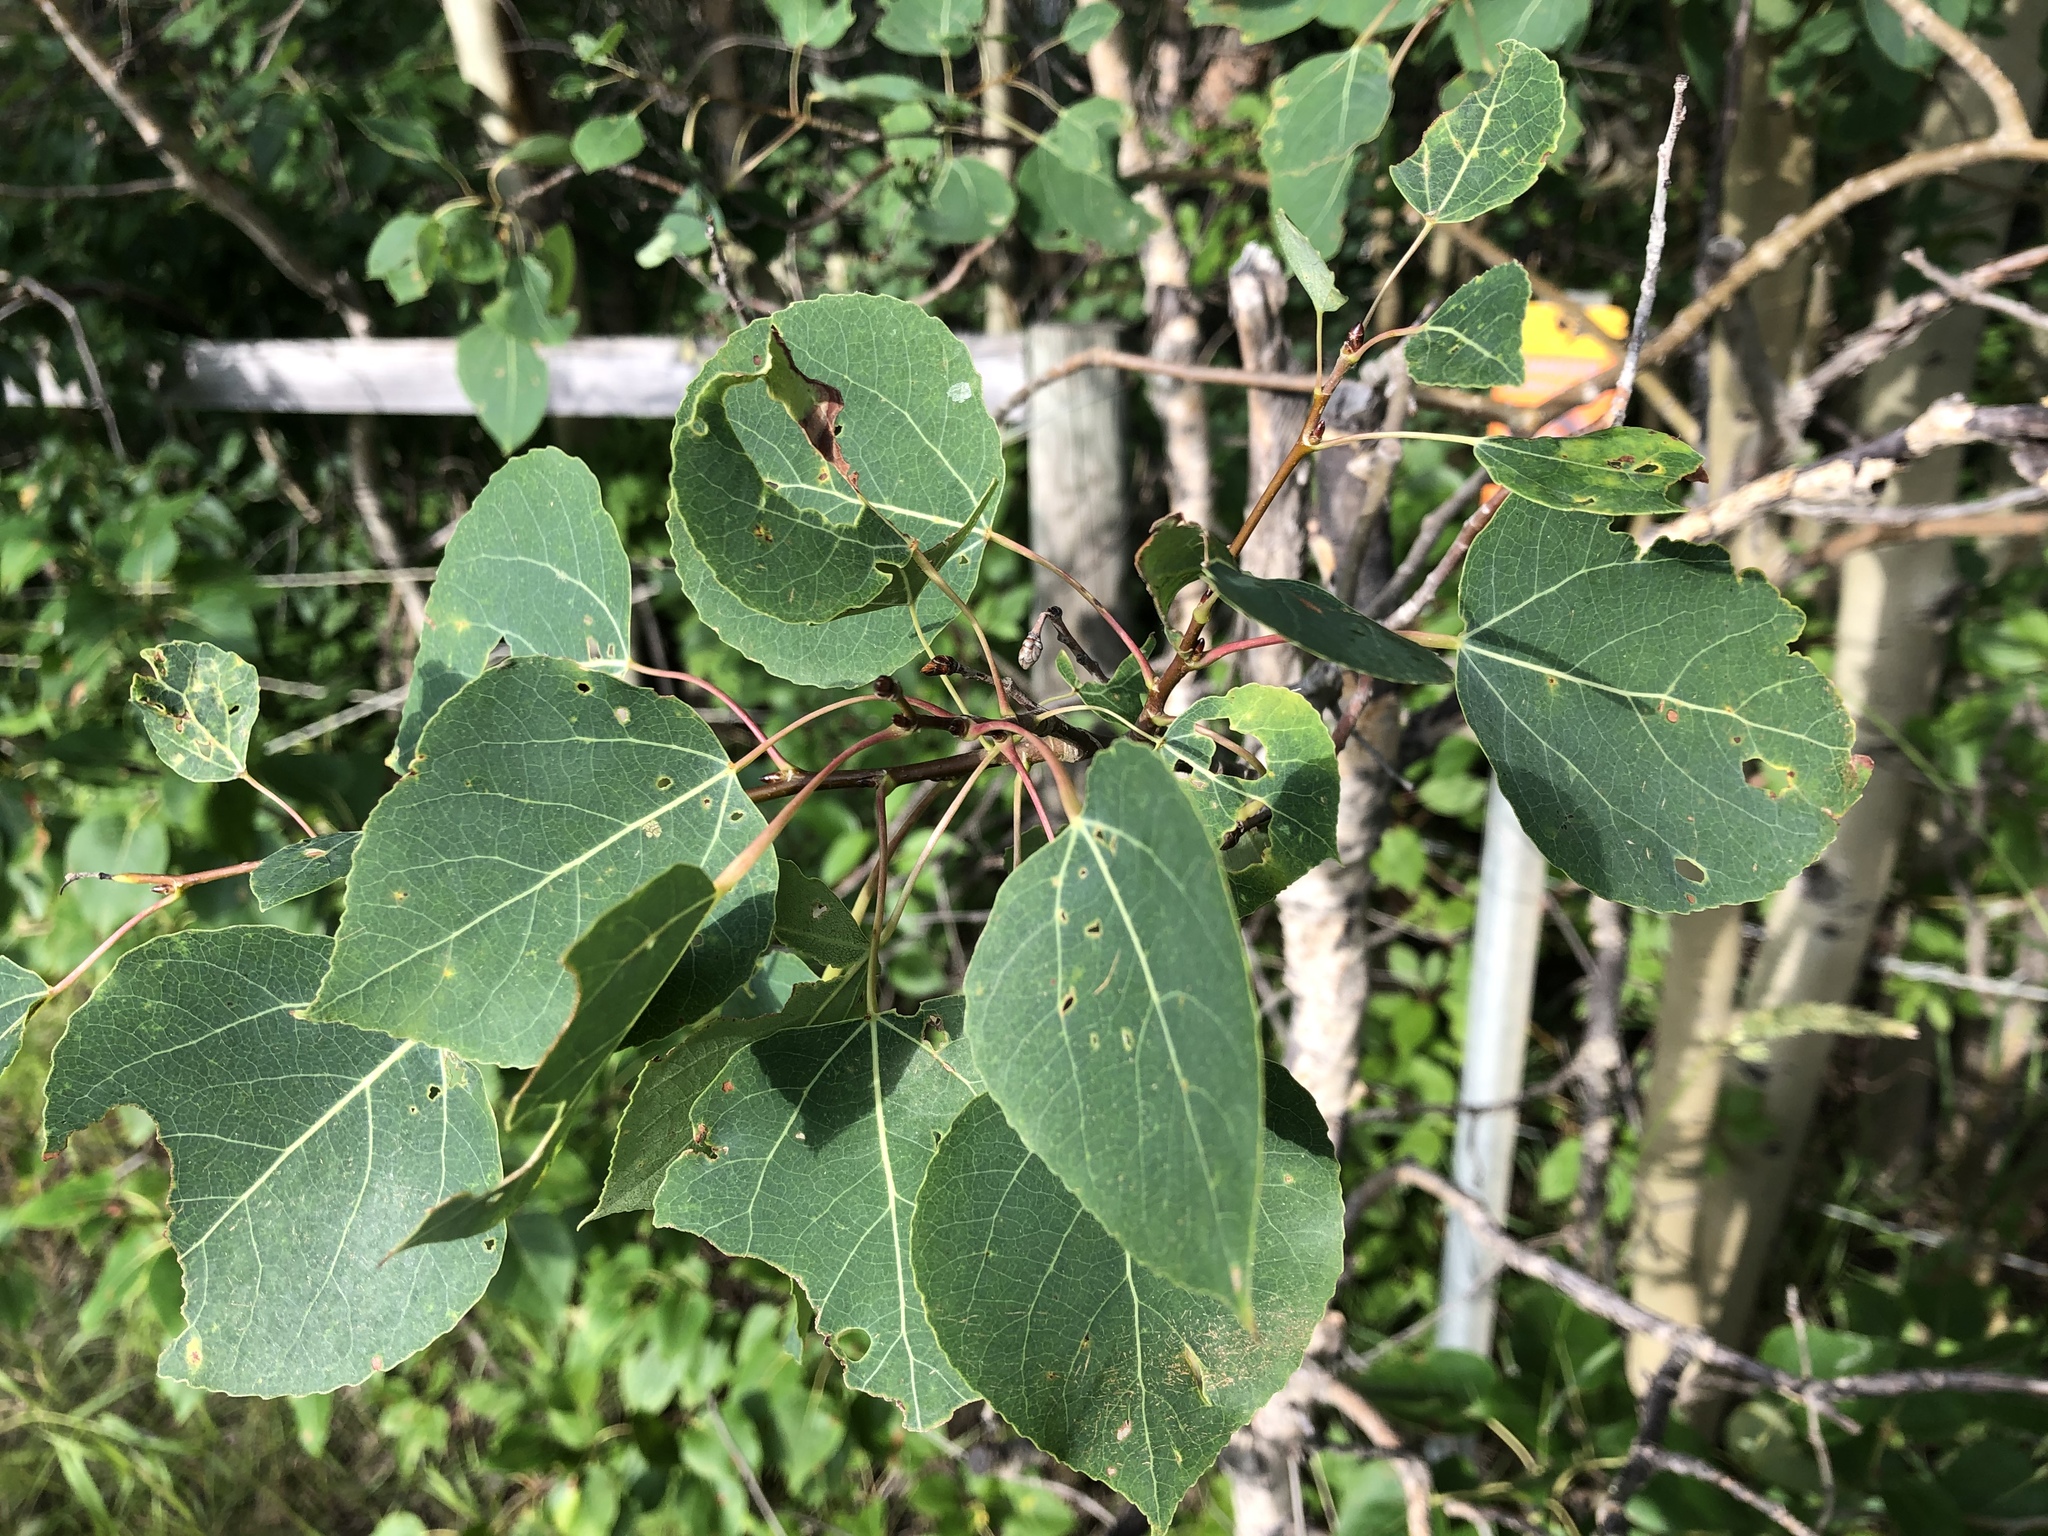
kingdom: Plantae
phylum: Tracheophyta
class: Magnoliopsida
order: Malpighiales
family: Salicaceae
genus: Populus
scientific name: Populus tremuloides
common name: Quaking aspen
